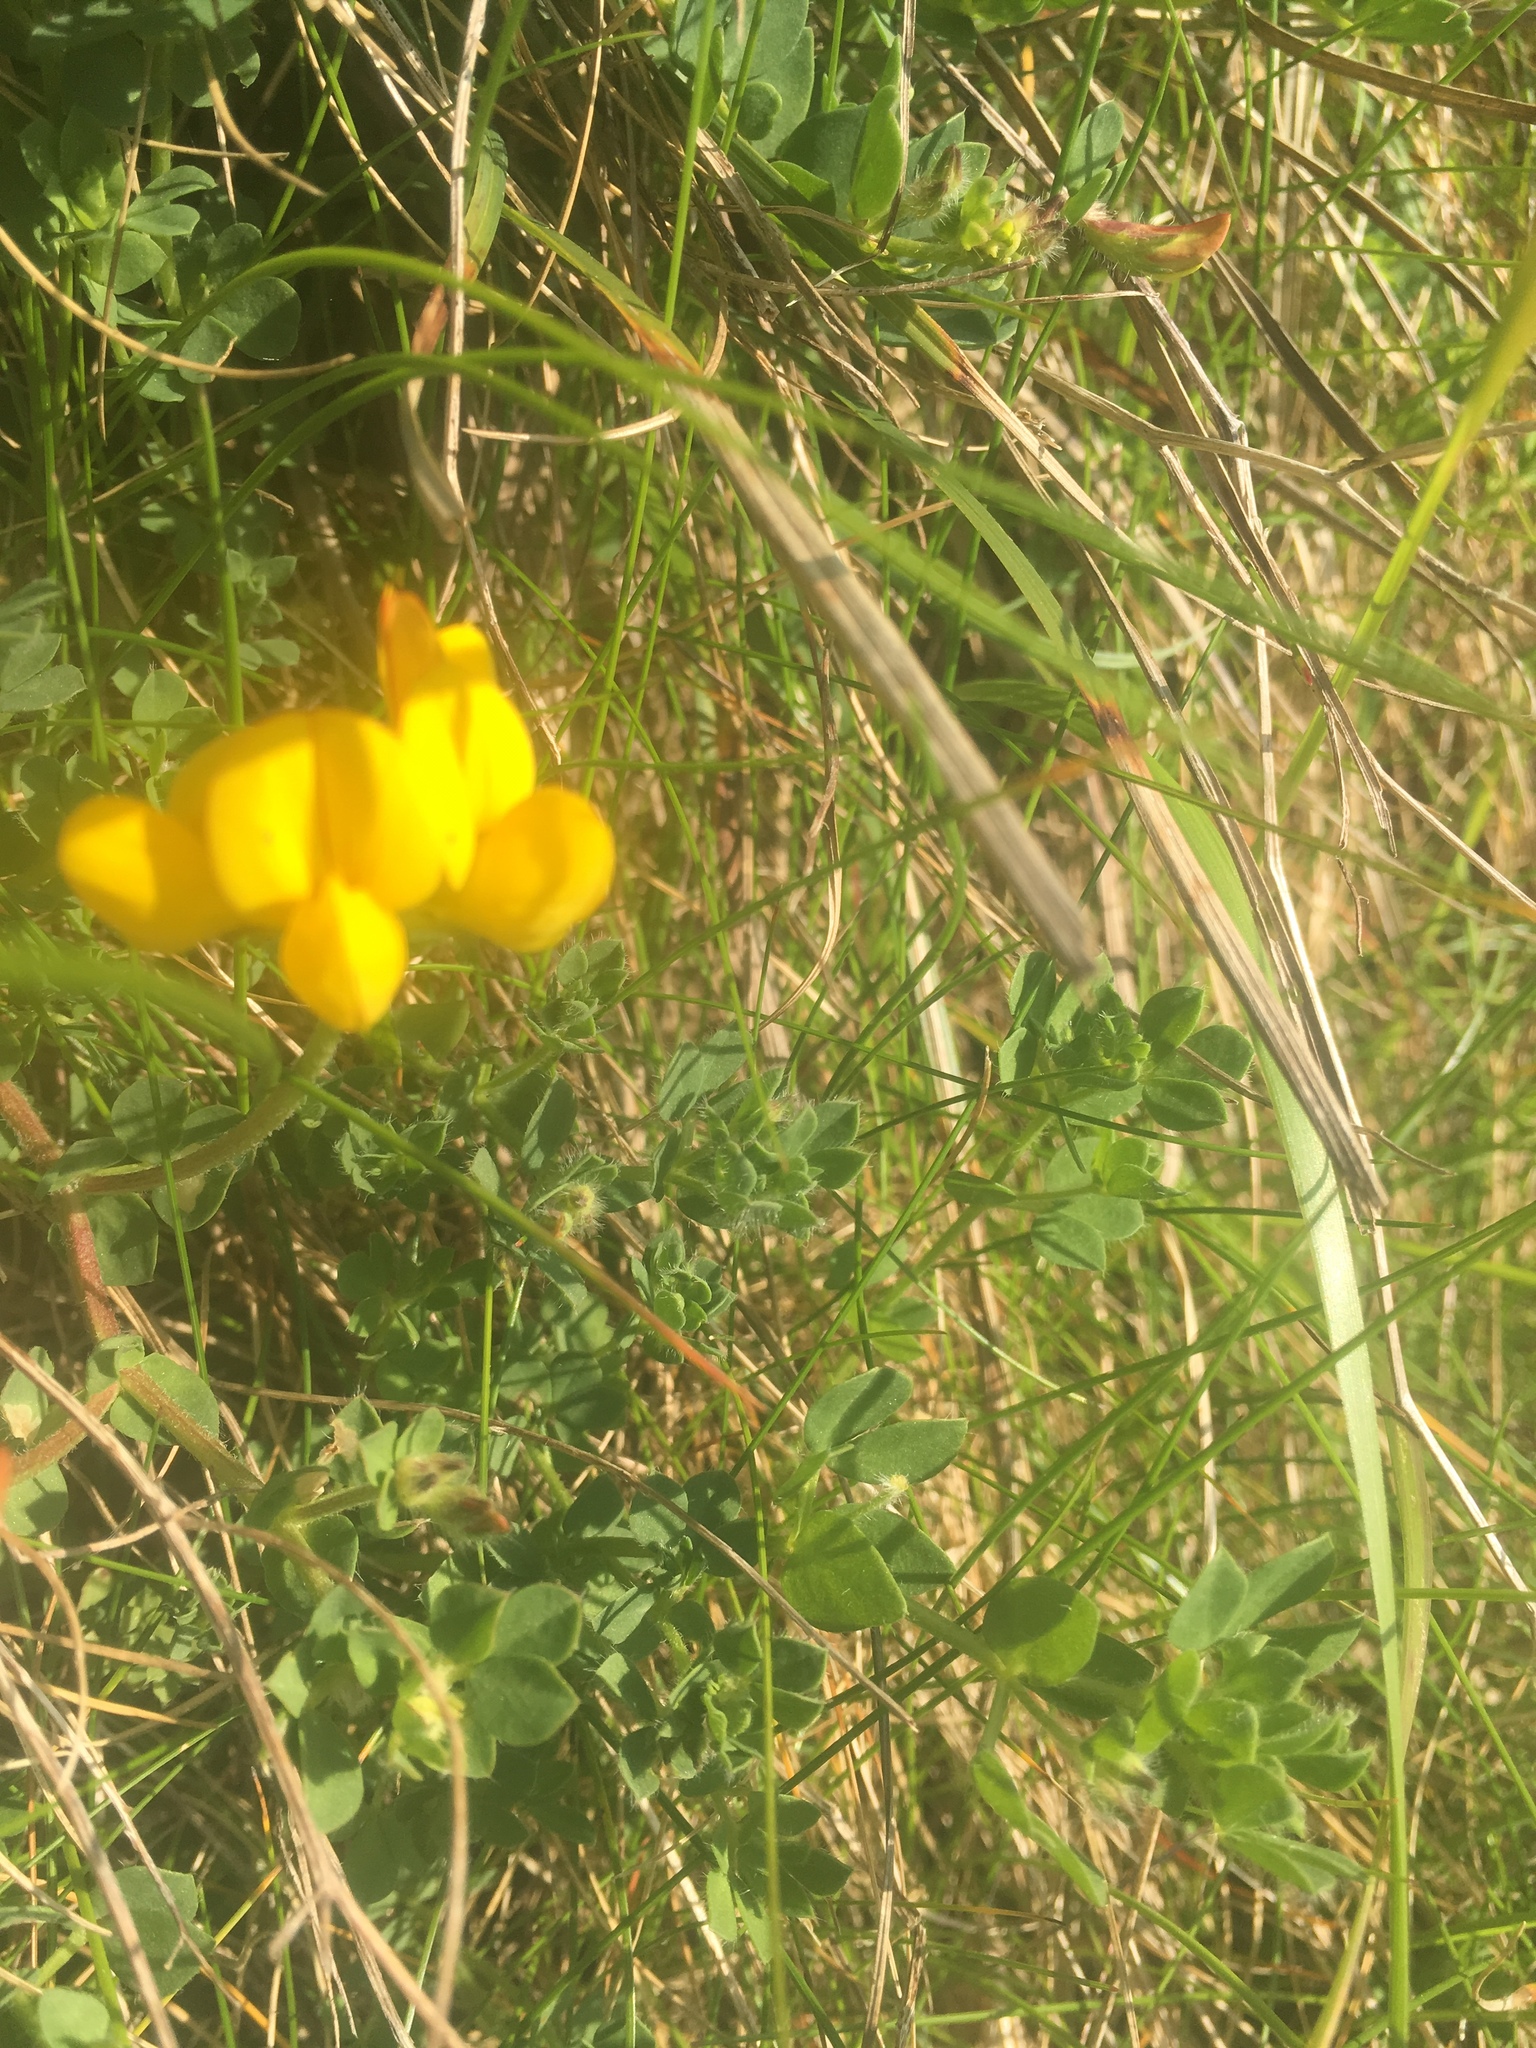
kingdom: Plantae
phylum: Tracheophyta
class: Magnoliopsida
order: Fabales
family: Fabaceae
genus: Lotus
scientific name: Lotus corniculatus
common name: Common bird's-foot-trefoil
